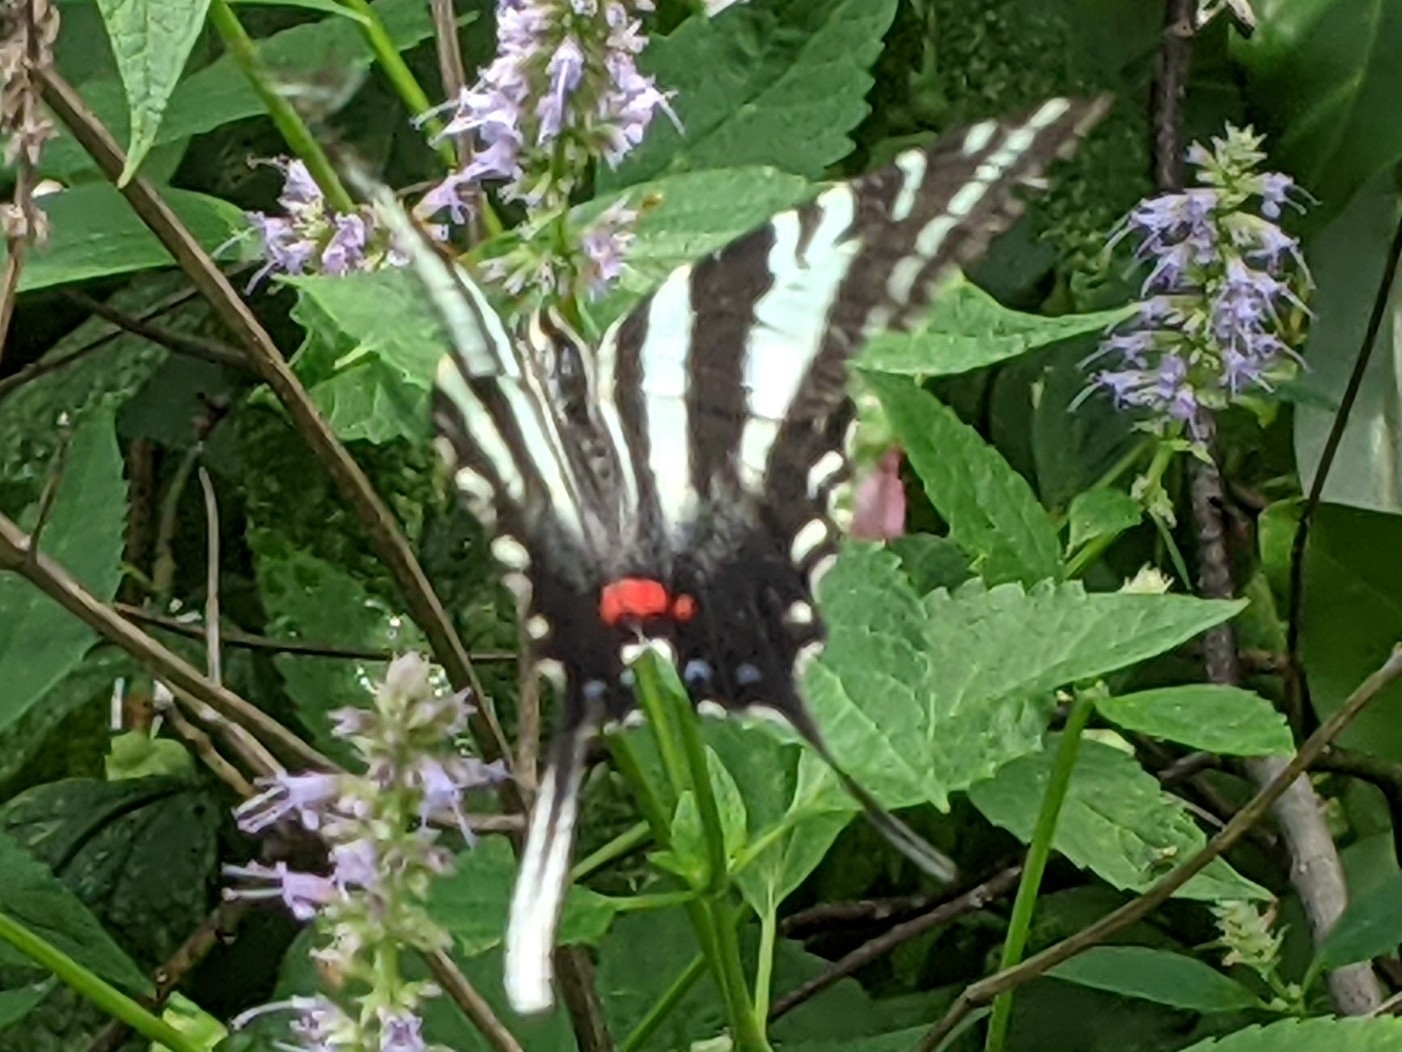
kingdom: Animalia
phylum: Arthropoda
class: Insecta
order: Lepidoptera
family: Papilionidae
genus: Protographium
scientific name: Protographium marcellus
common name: Zebra swallowtail
